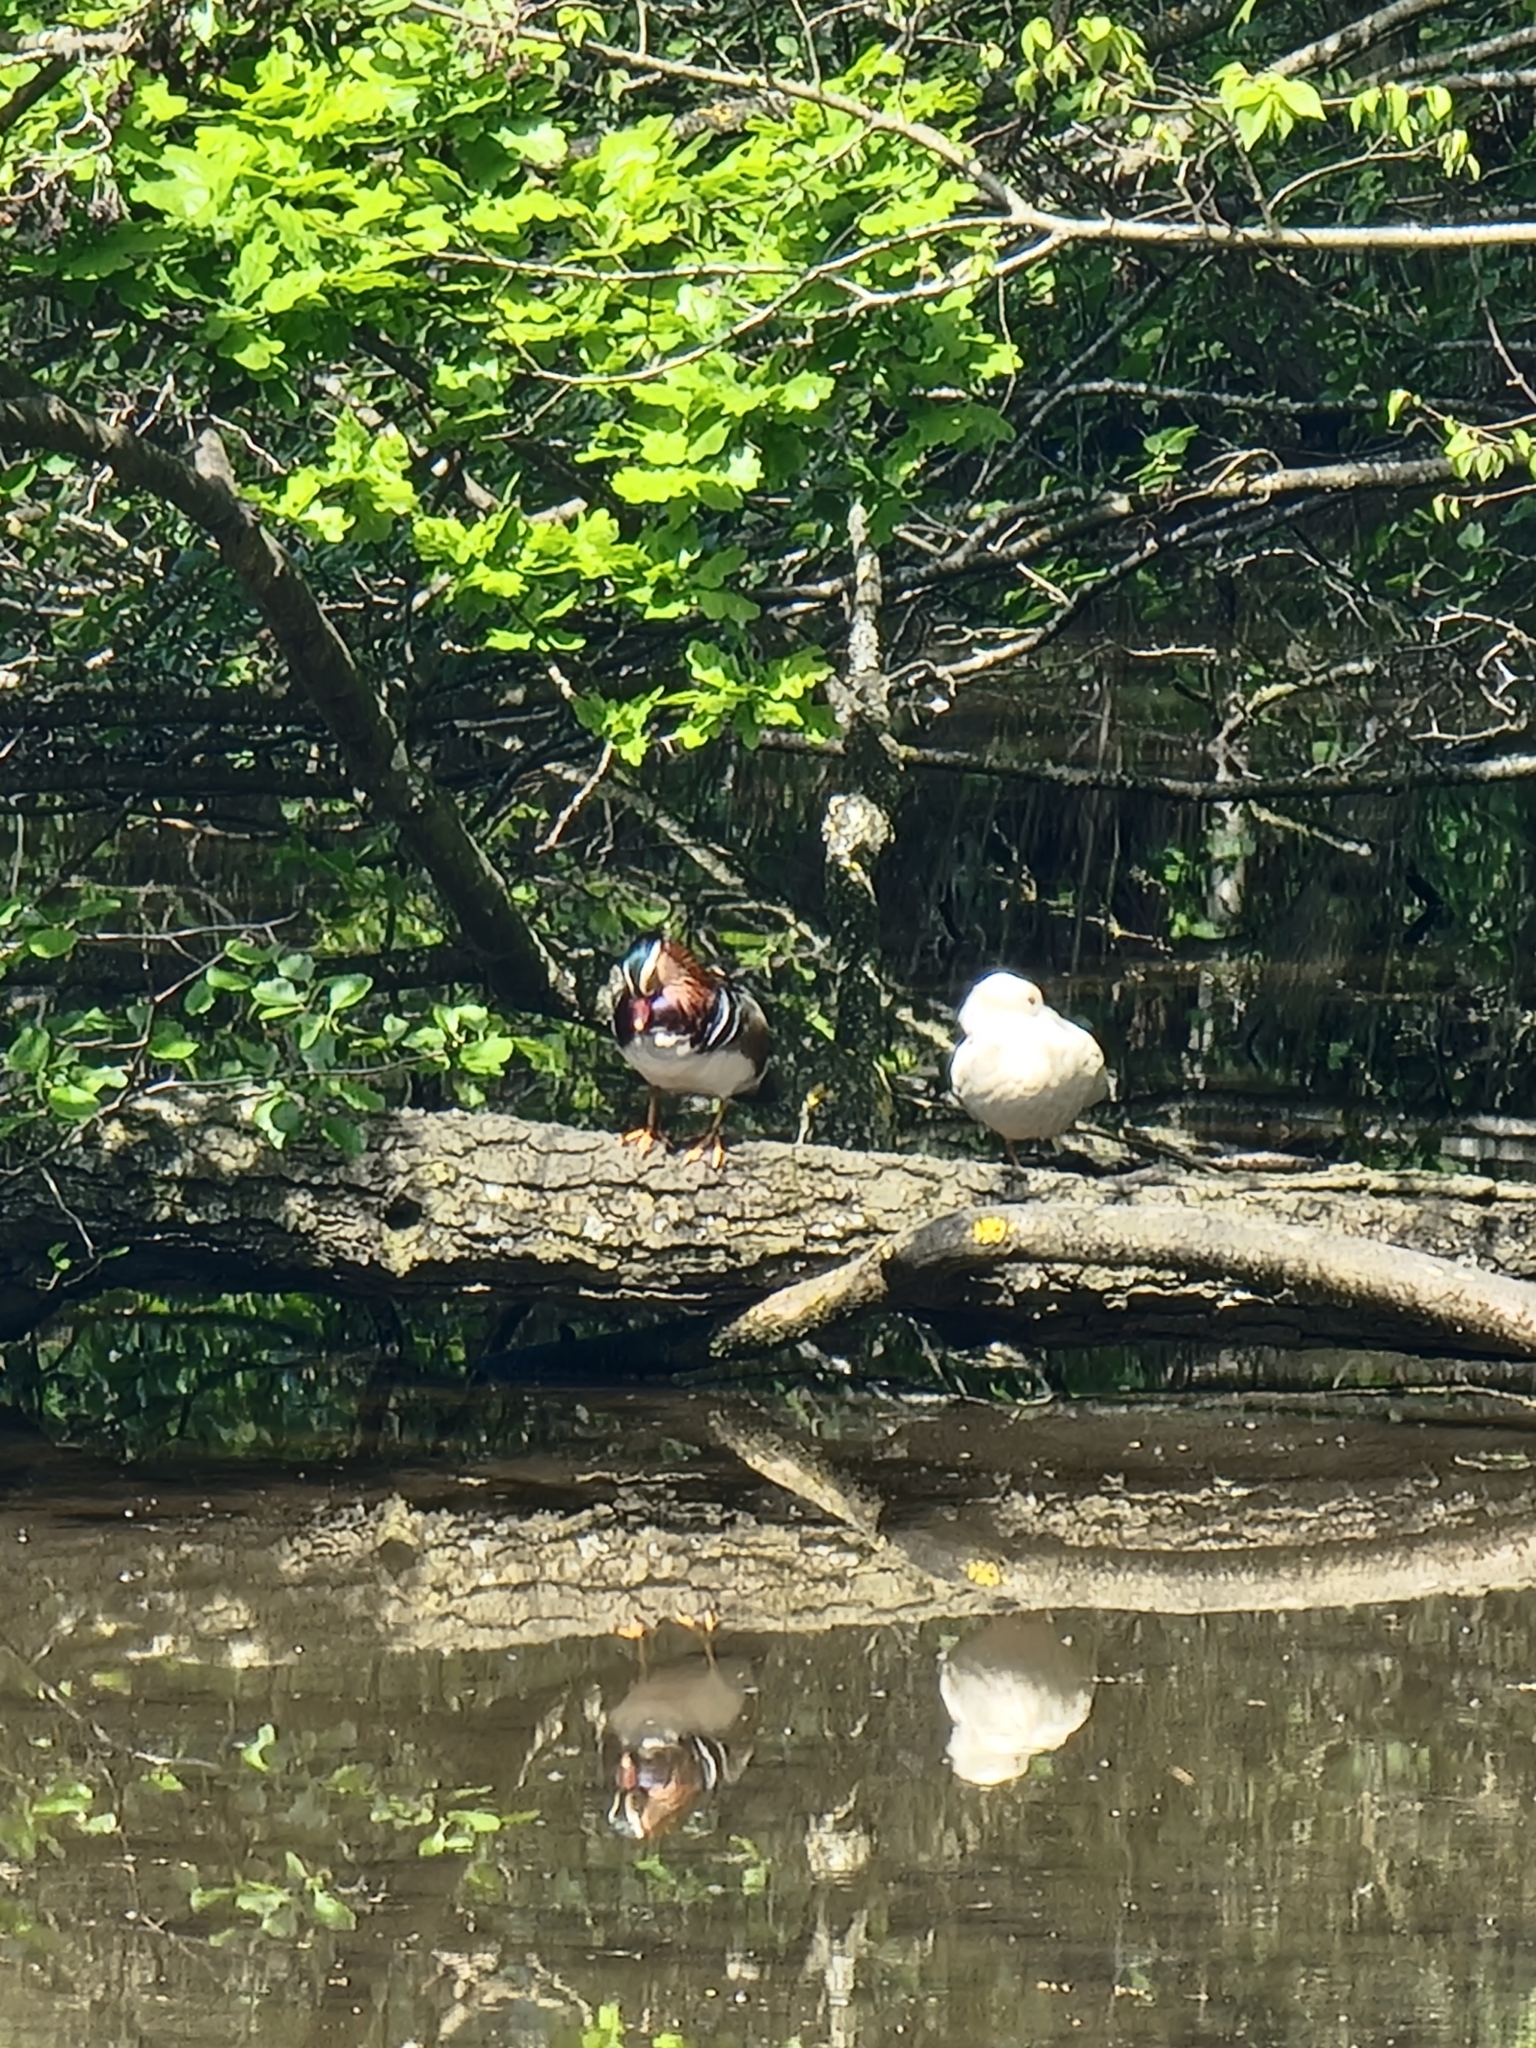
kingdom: Animalia
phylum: Chordata
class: Aves
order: Anseriformes
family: Anatidae
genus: Aix
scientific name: Aix galericulata
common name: Mandarin duck
